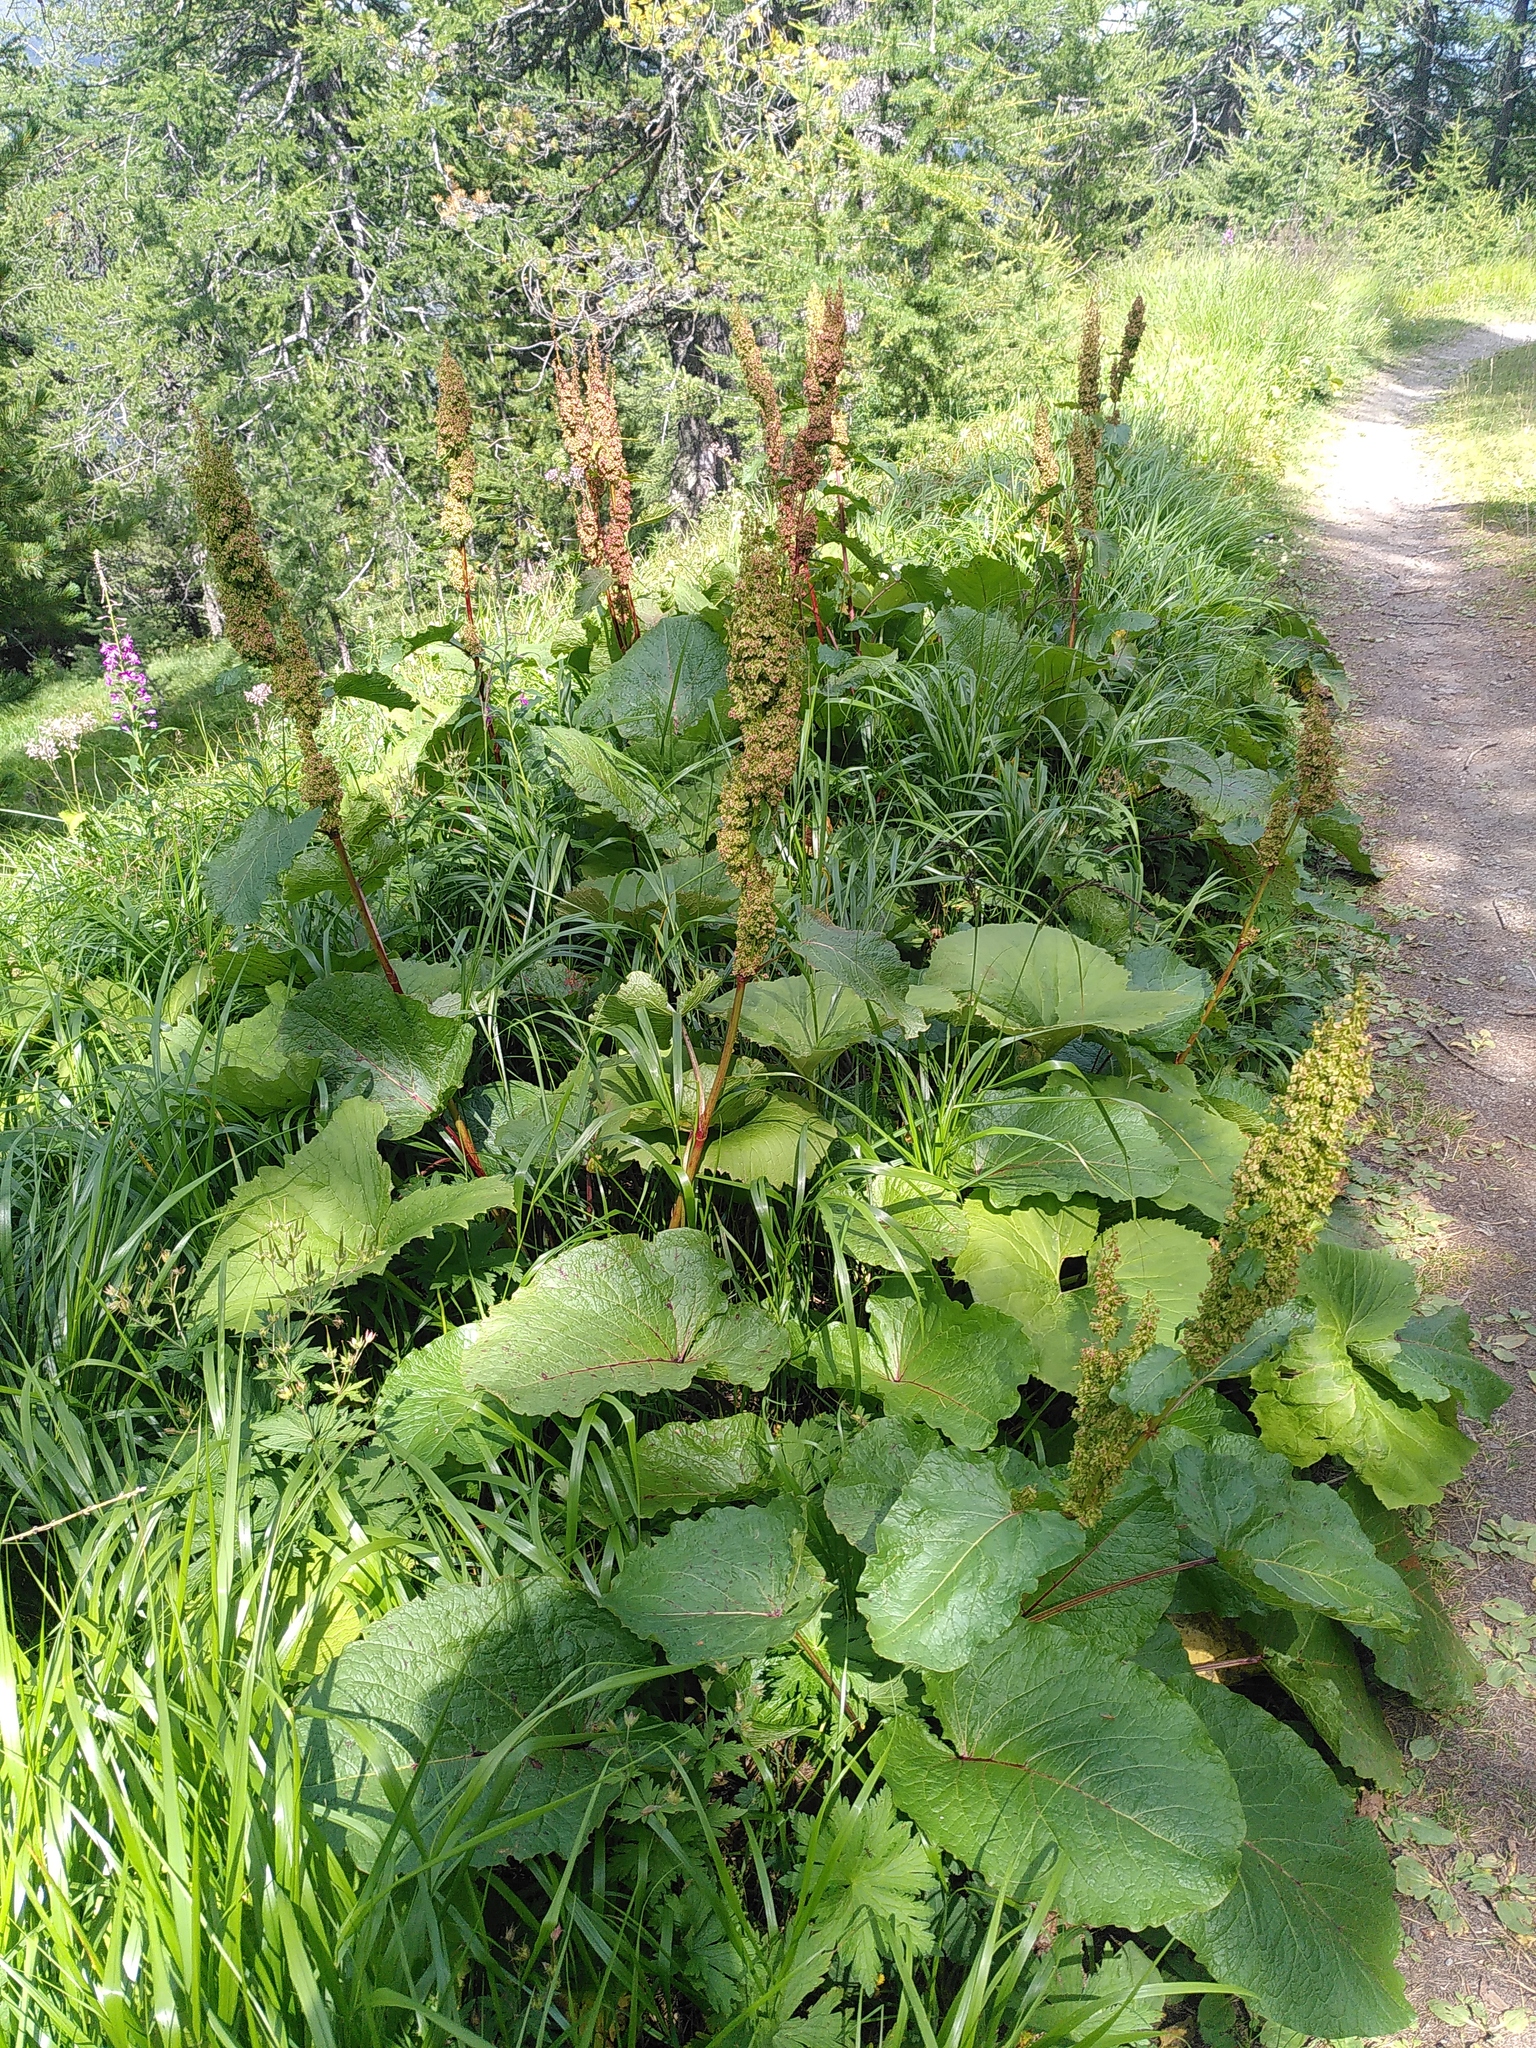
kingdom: Plantae
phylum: Tracheophyta
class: Magnoliopsida
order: Caryophyllales
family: Polygonaceae
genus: Rumex
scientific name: Rumex alpinus
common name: Alpine dock
